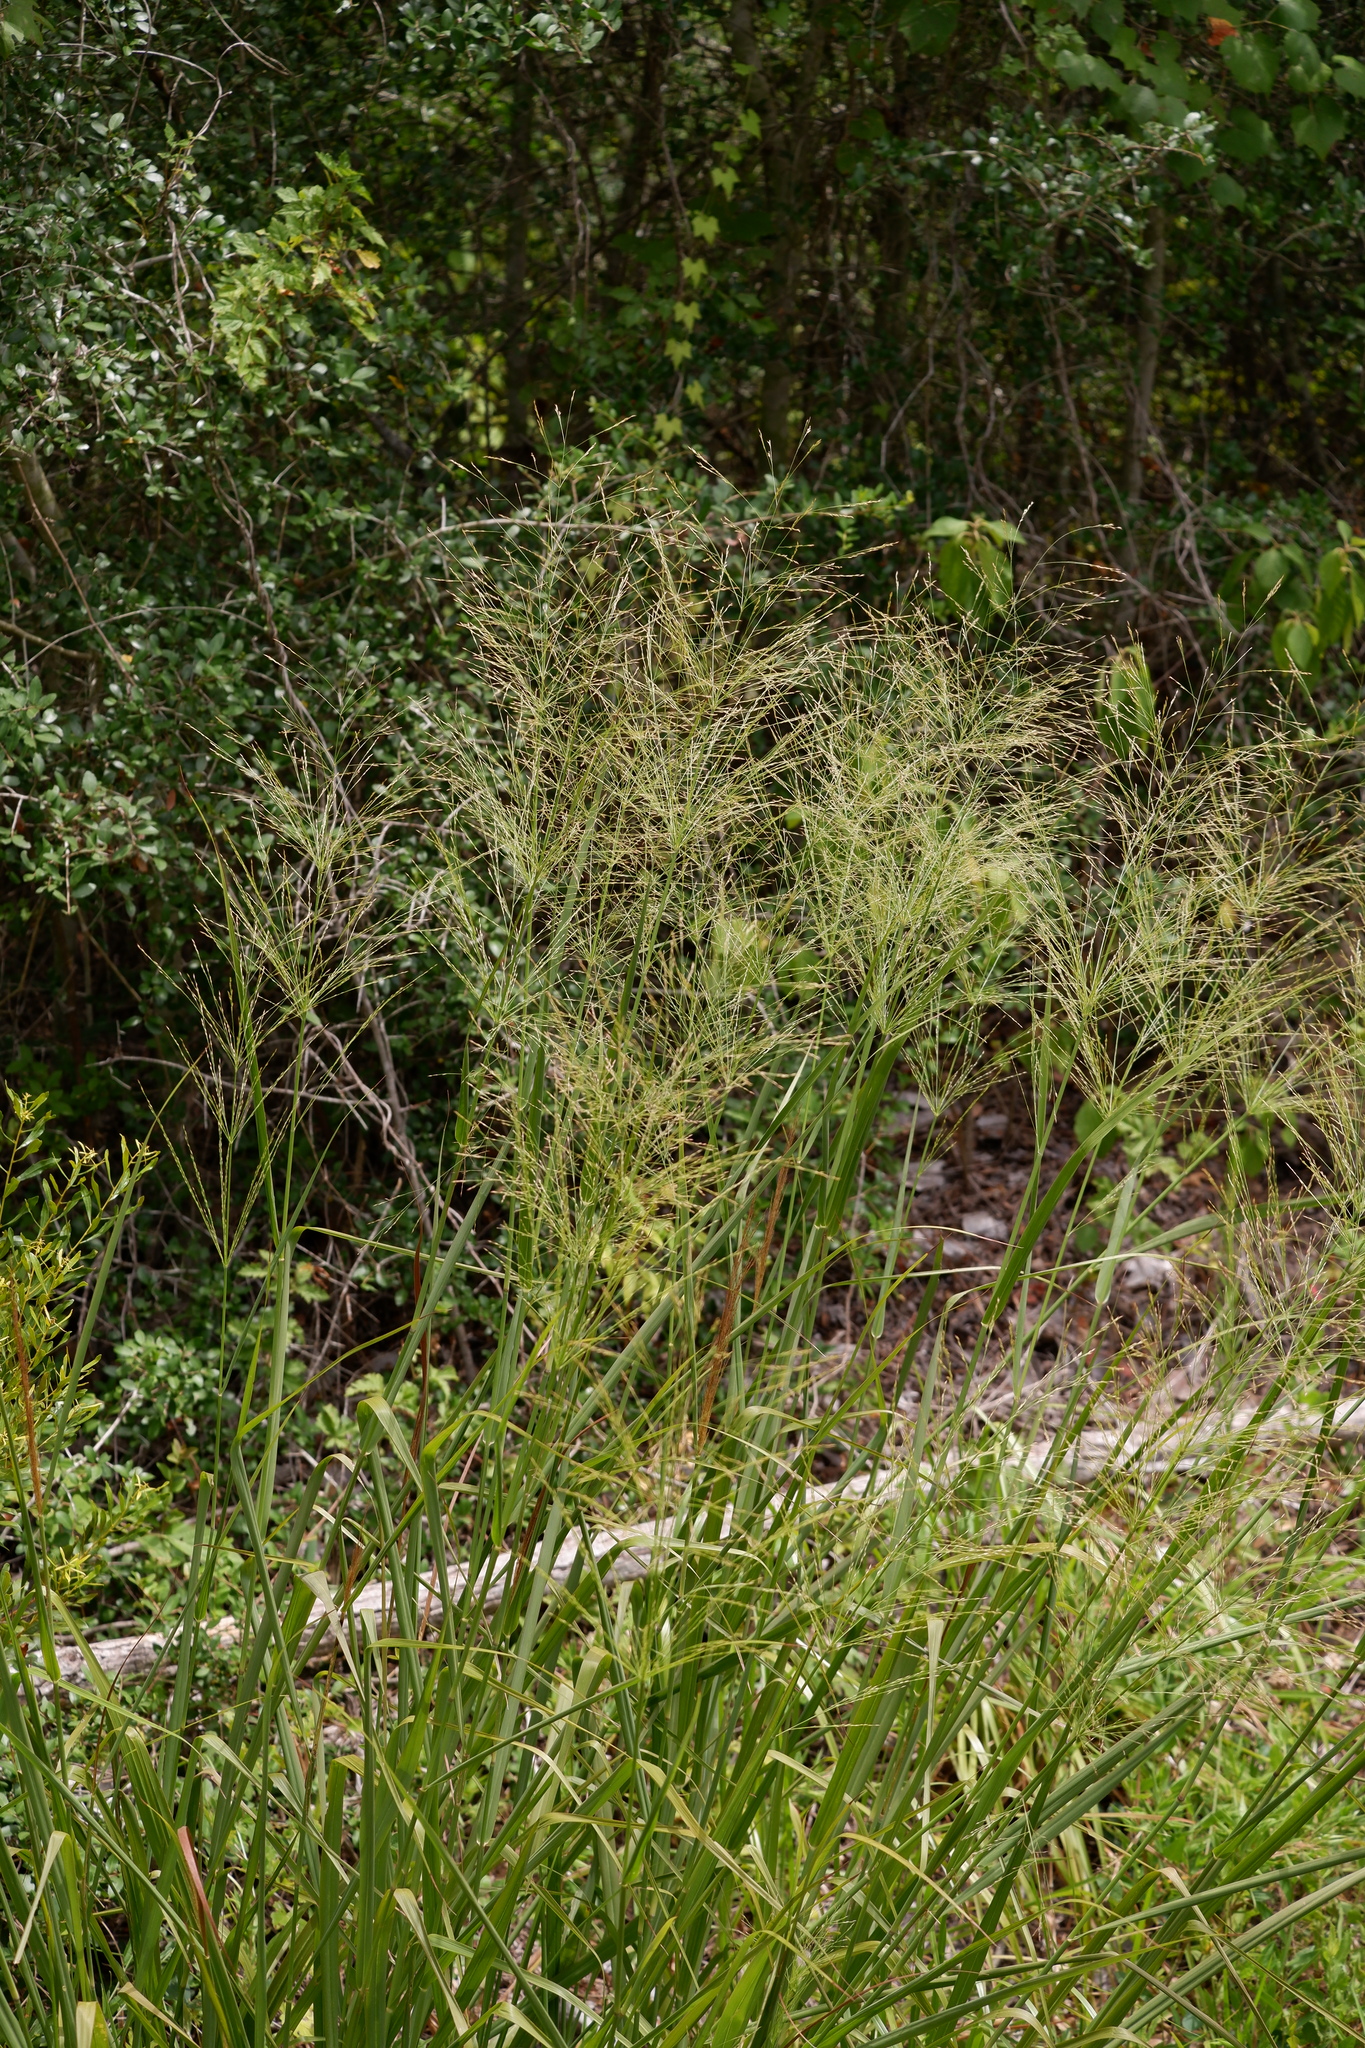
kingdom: Plantae
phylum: Tracheophyta
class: Liliopsida
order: Poales
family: Poaceae
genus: Panicum
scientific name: Panicum virgatum
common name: Switchgrass
